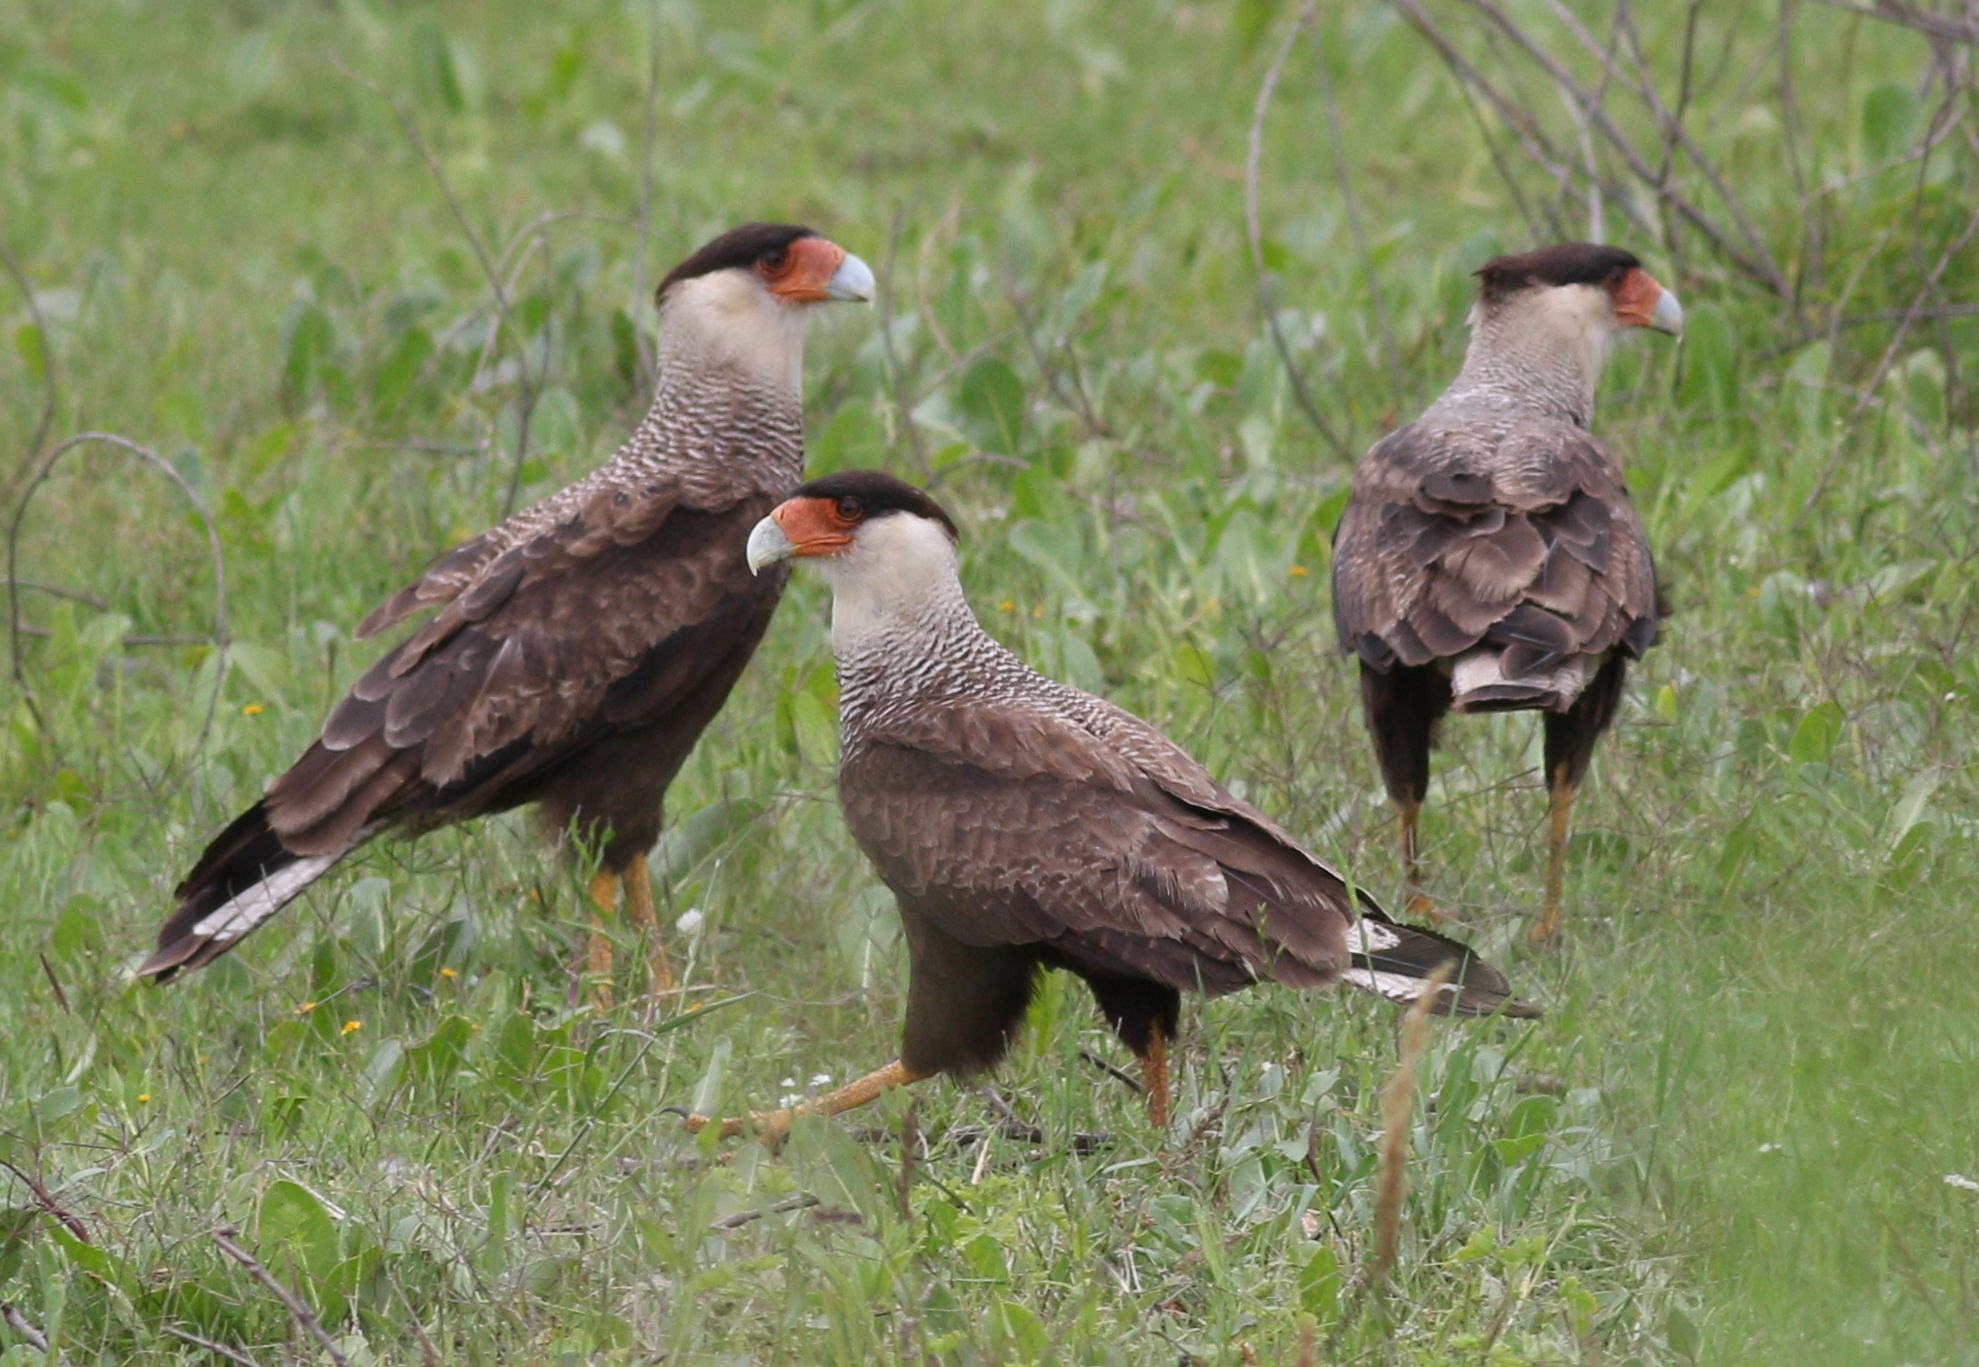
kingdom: Animalia
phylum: Chordata
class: Aves
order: Falconiformes
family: Falconidae
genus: Caracara
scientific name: Caracara plancus
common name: Southern caracara
